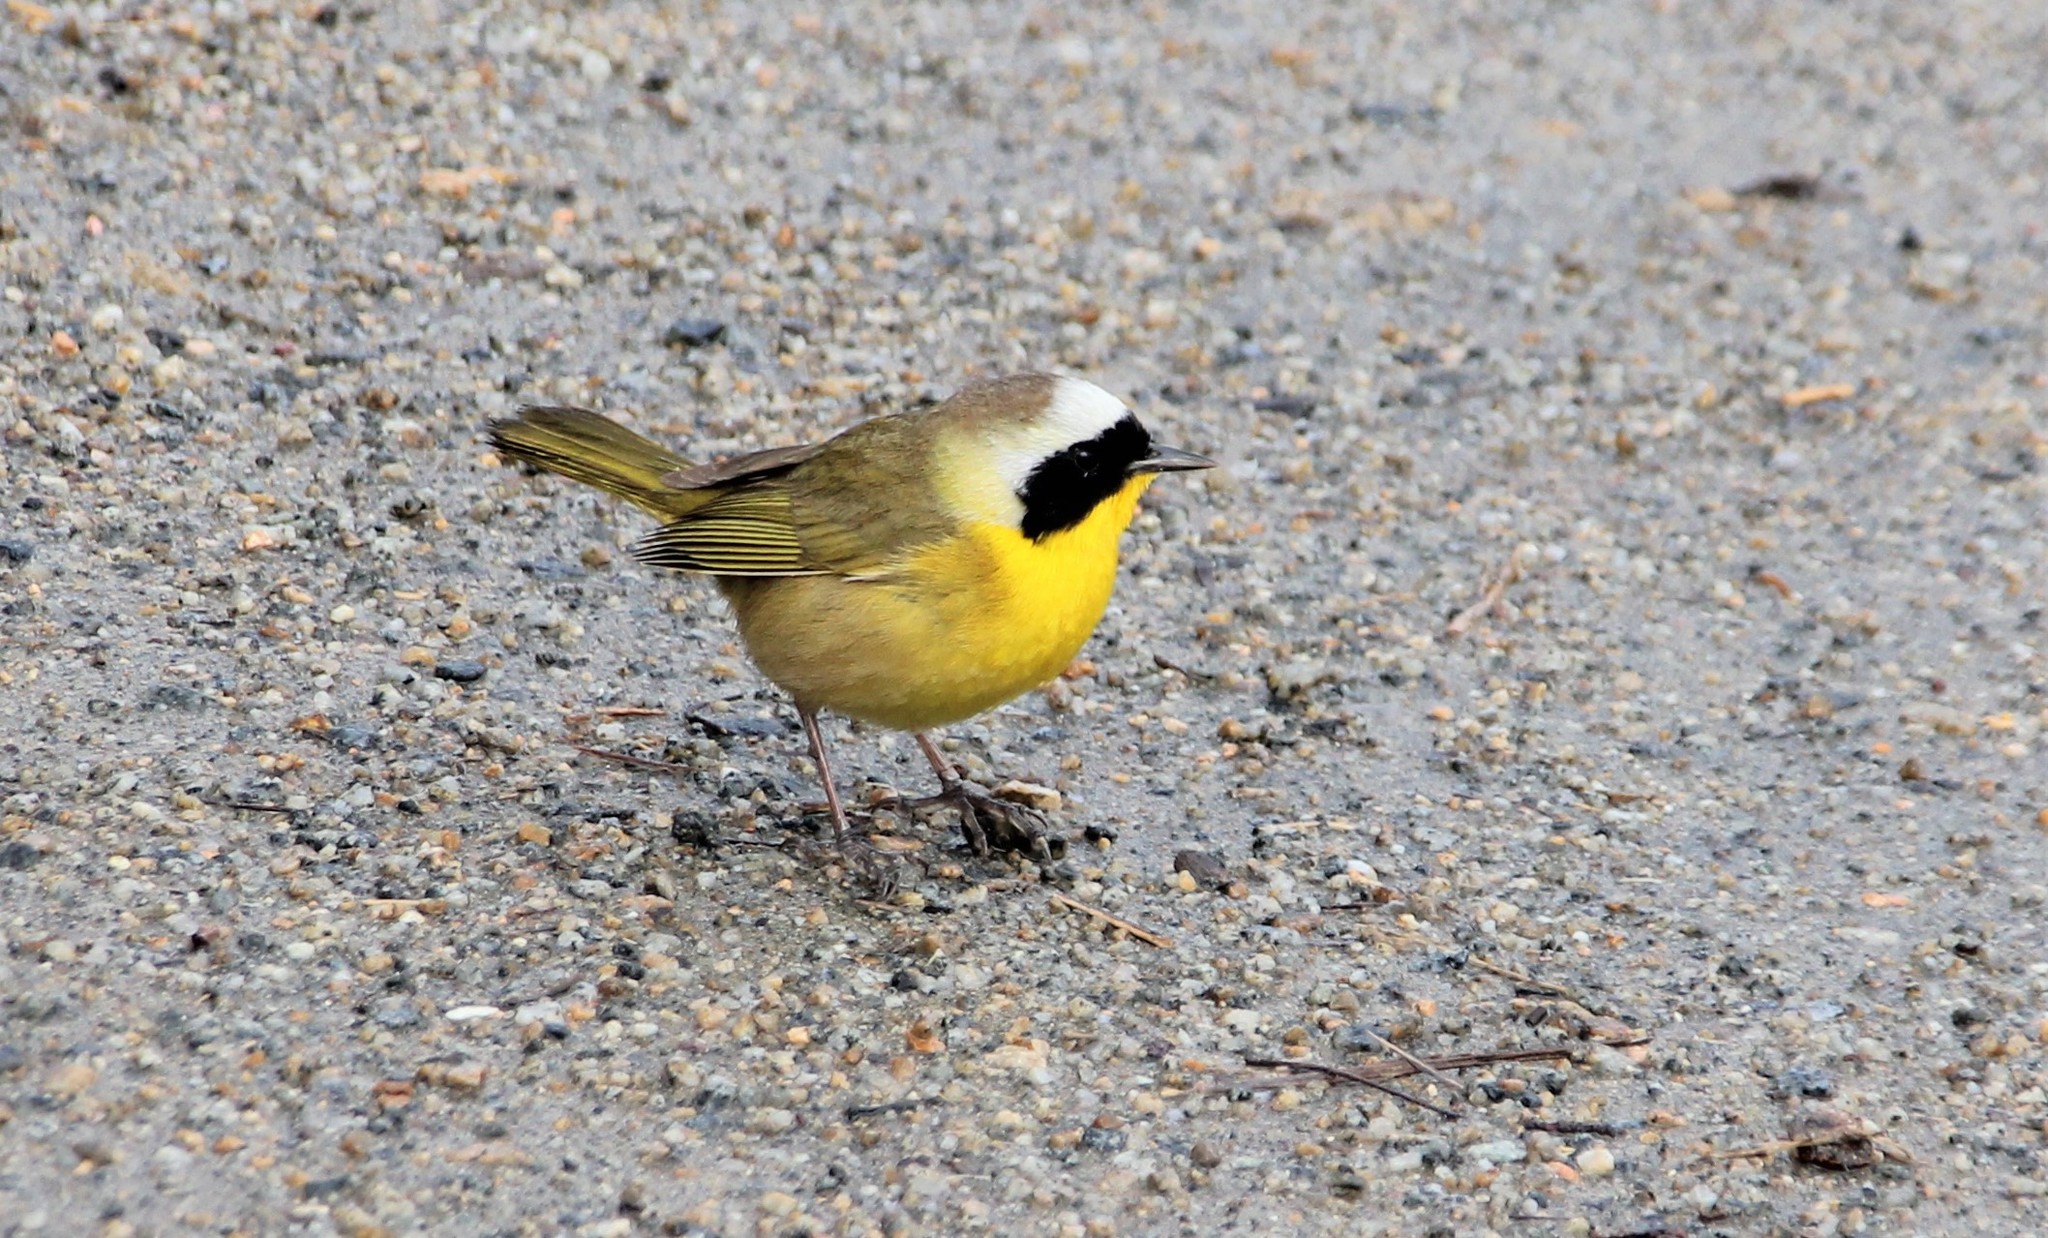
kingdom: Animalia
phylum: Chordata
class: Aves
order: Passeriformes
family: Parulidae
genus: Geothlypis
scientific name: Geothlypis trichas
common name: Common yellowthroat
